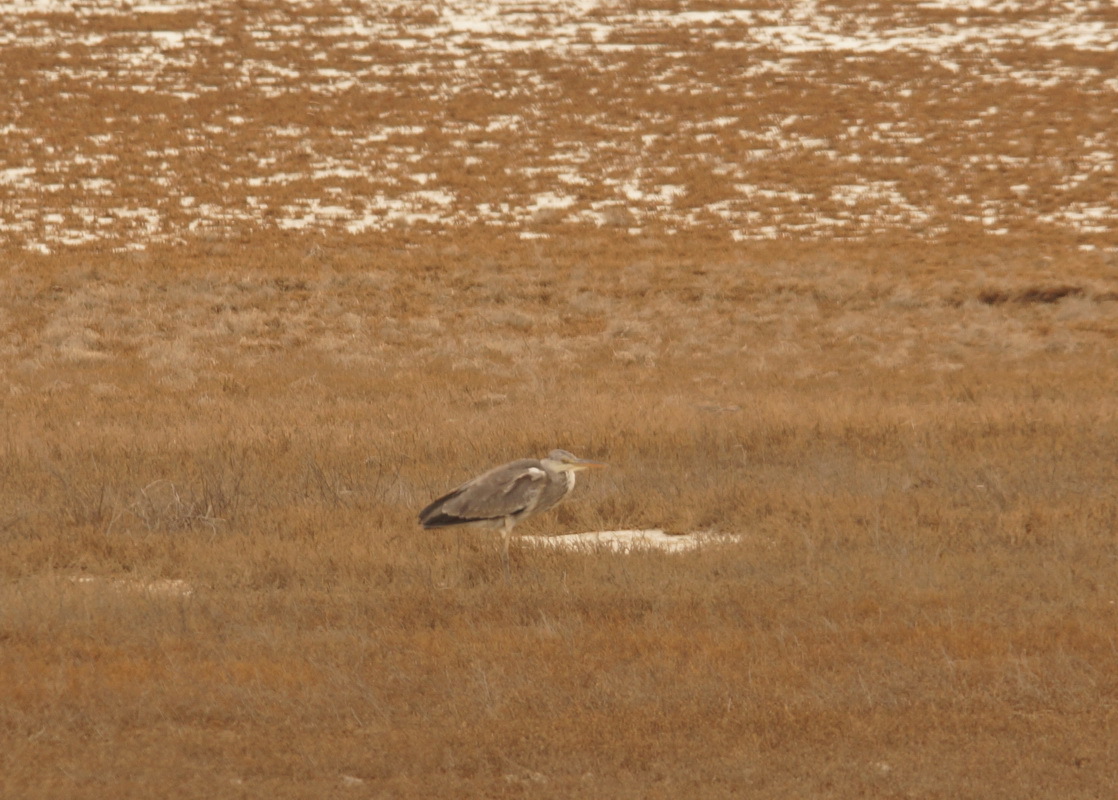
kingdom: Animalia
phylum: Chordata
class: Aves
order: Pelecaniformes
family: Ardeidae
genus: Ardea
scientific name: Ardea cinerea
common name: Grey heron
